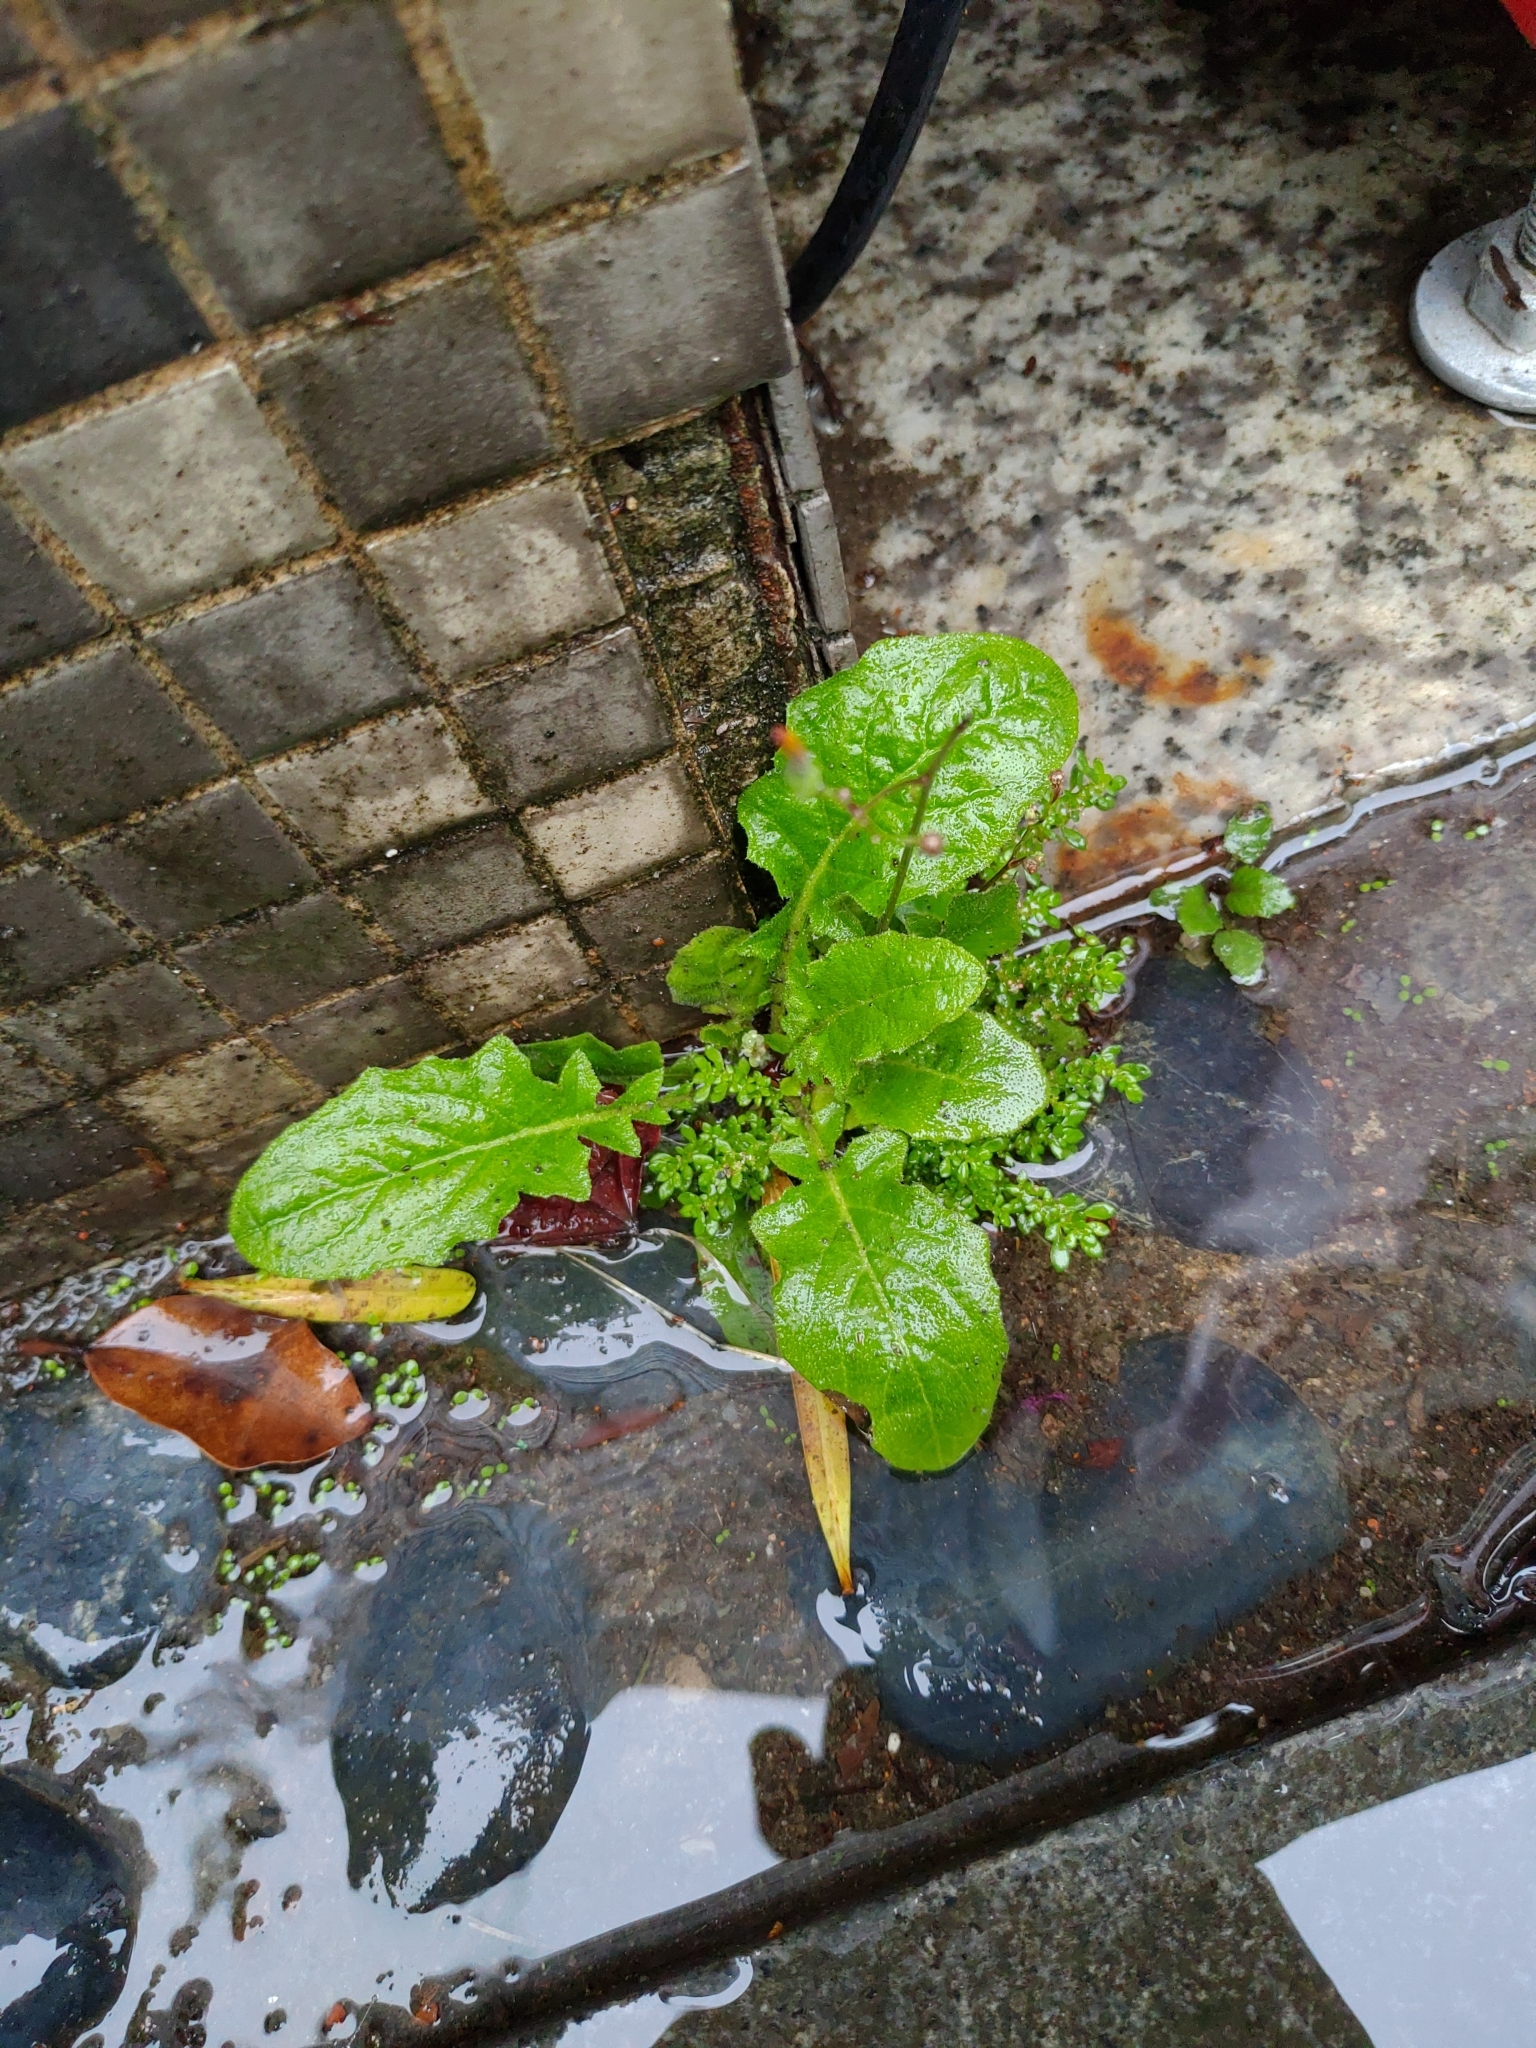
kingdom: Plantae
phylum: Tracheophyta
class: Magnoliopsida
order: Asterales
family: Asteraceae
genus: Youngia
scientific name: Youngia japonica
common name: Oriental false hawksbeard
